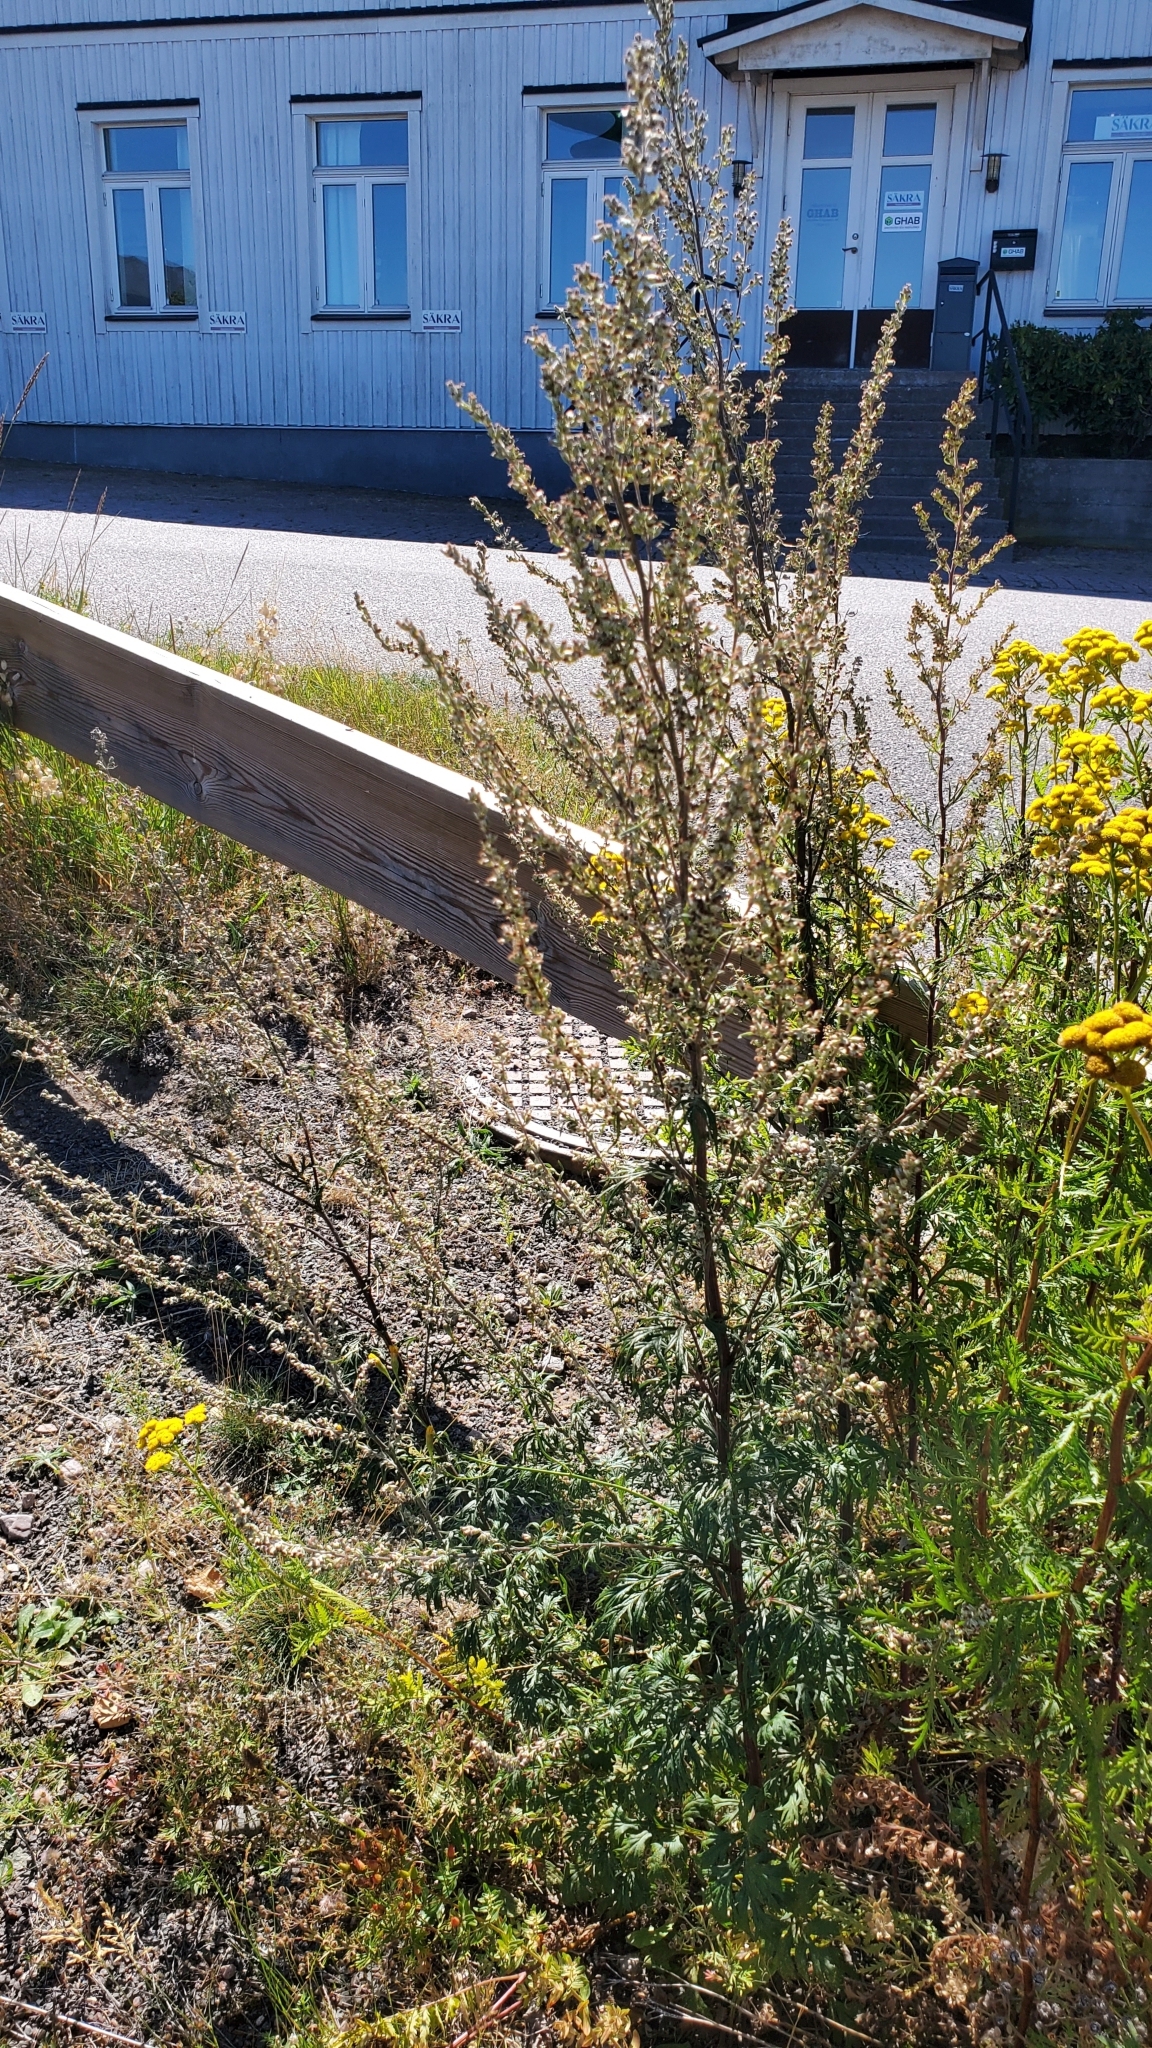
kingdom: Plantae
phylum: Tracheophyta
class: Magnoliopsida
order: Asterales
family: Asteraceae
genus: Artemisia
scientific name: Artemisia vulgaris
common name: Mugwort
